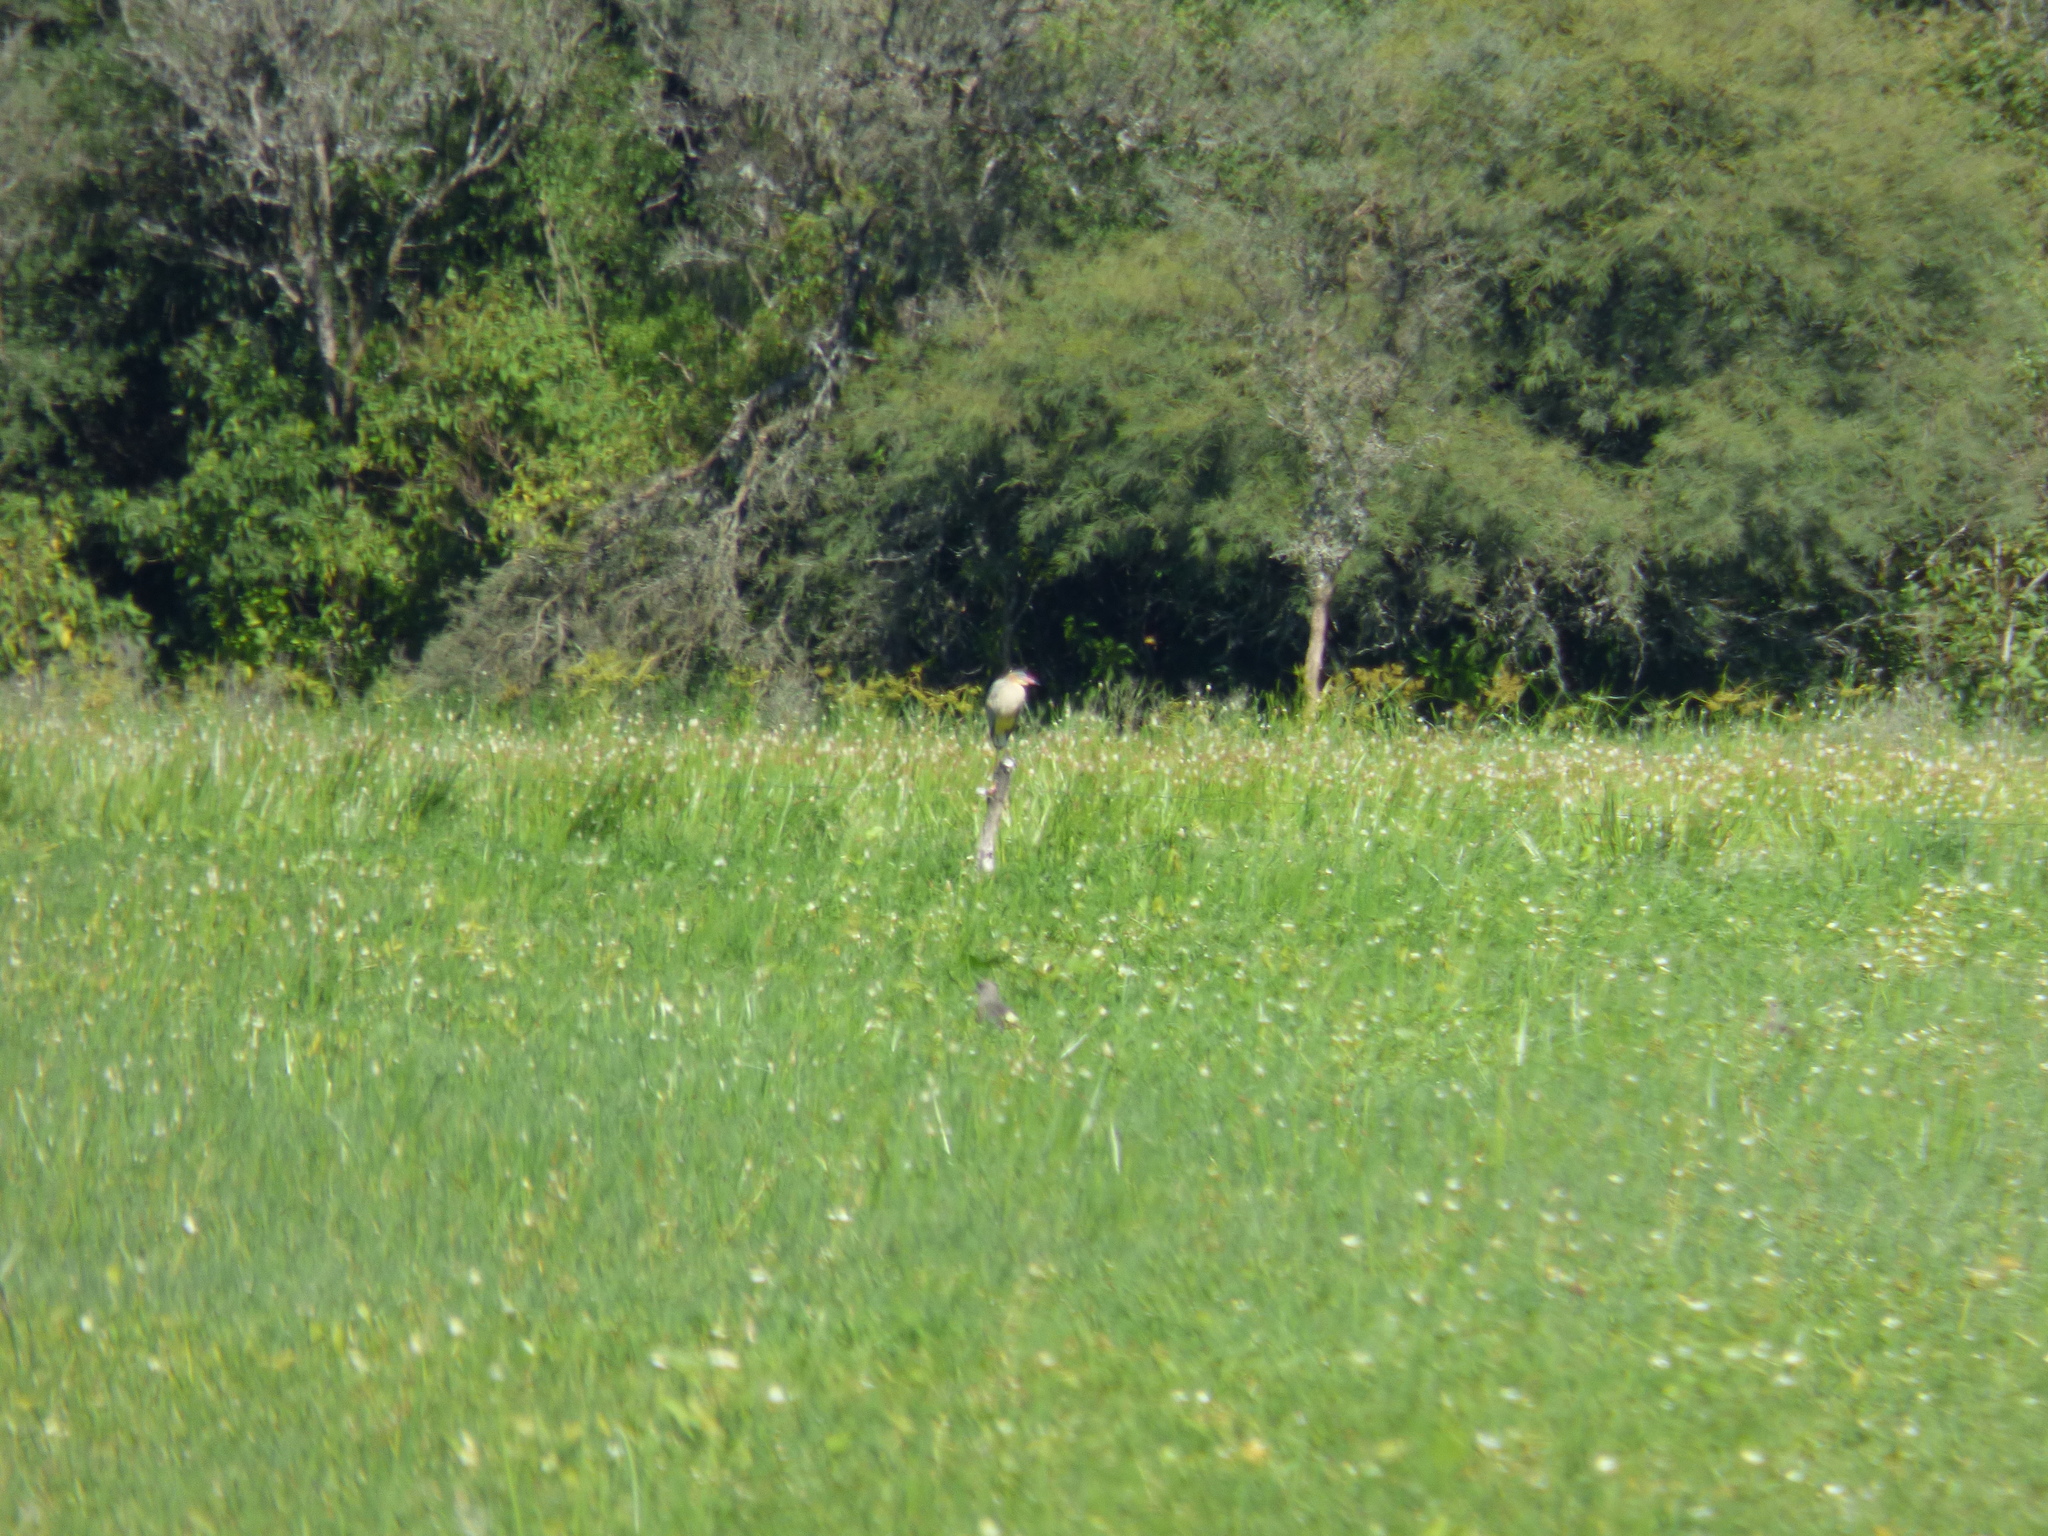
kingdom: Animalia
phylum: Chordata
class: Aves
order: Pelecaniformes
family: Ardeidae
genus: Syrigma
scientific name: Syrigma sibilatrix
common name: Whistling heron
